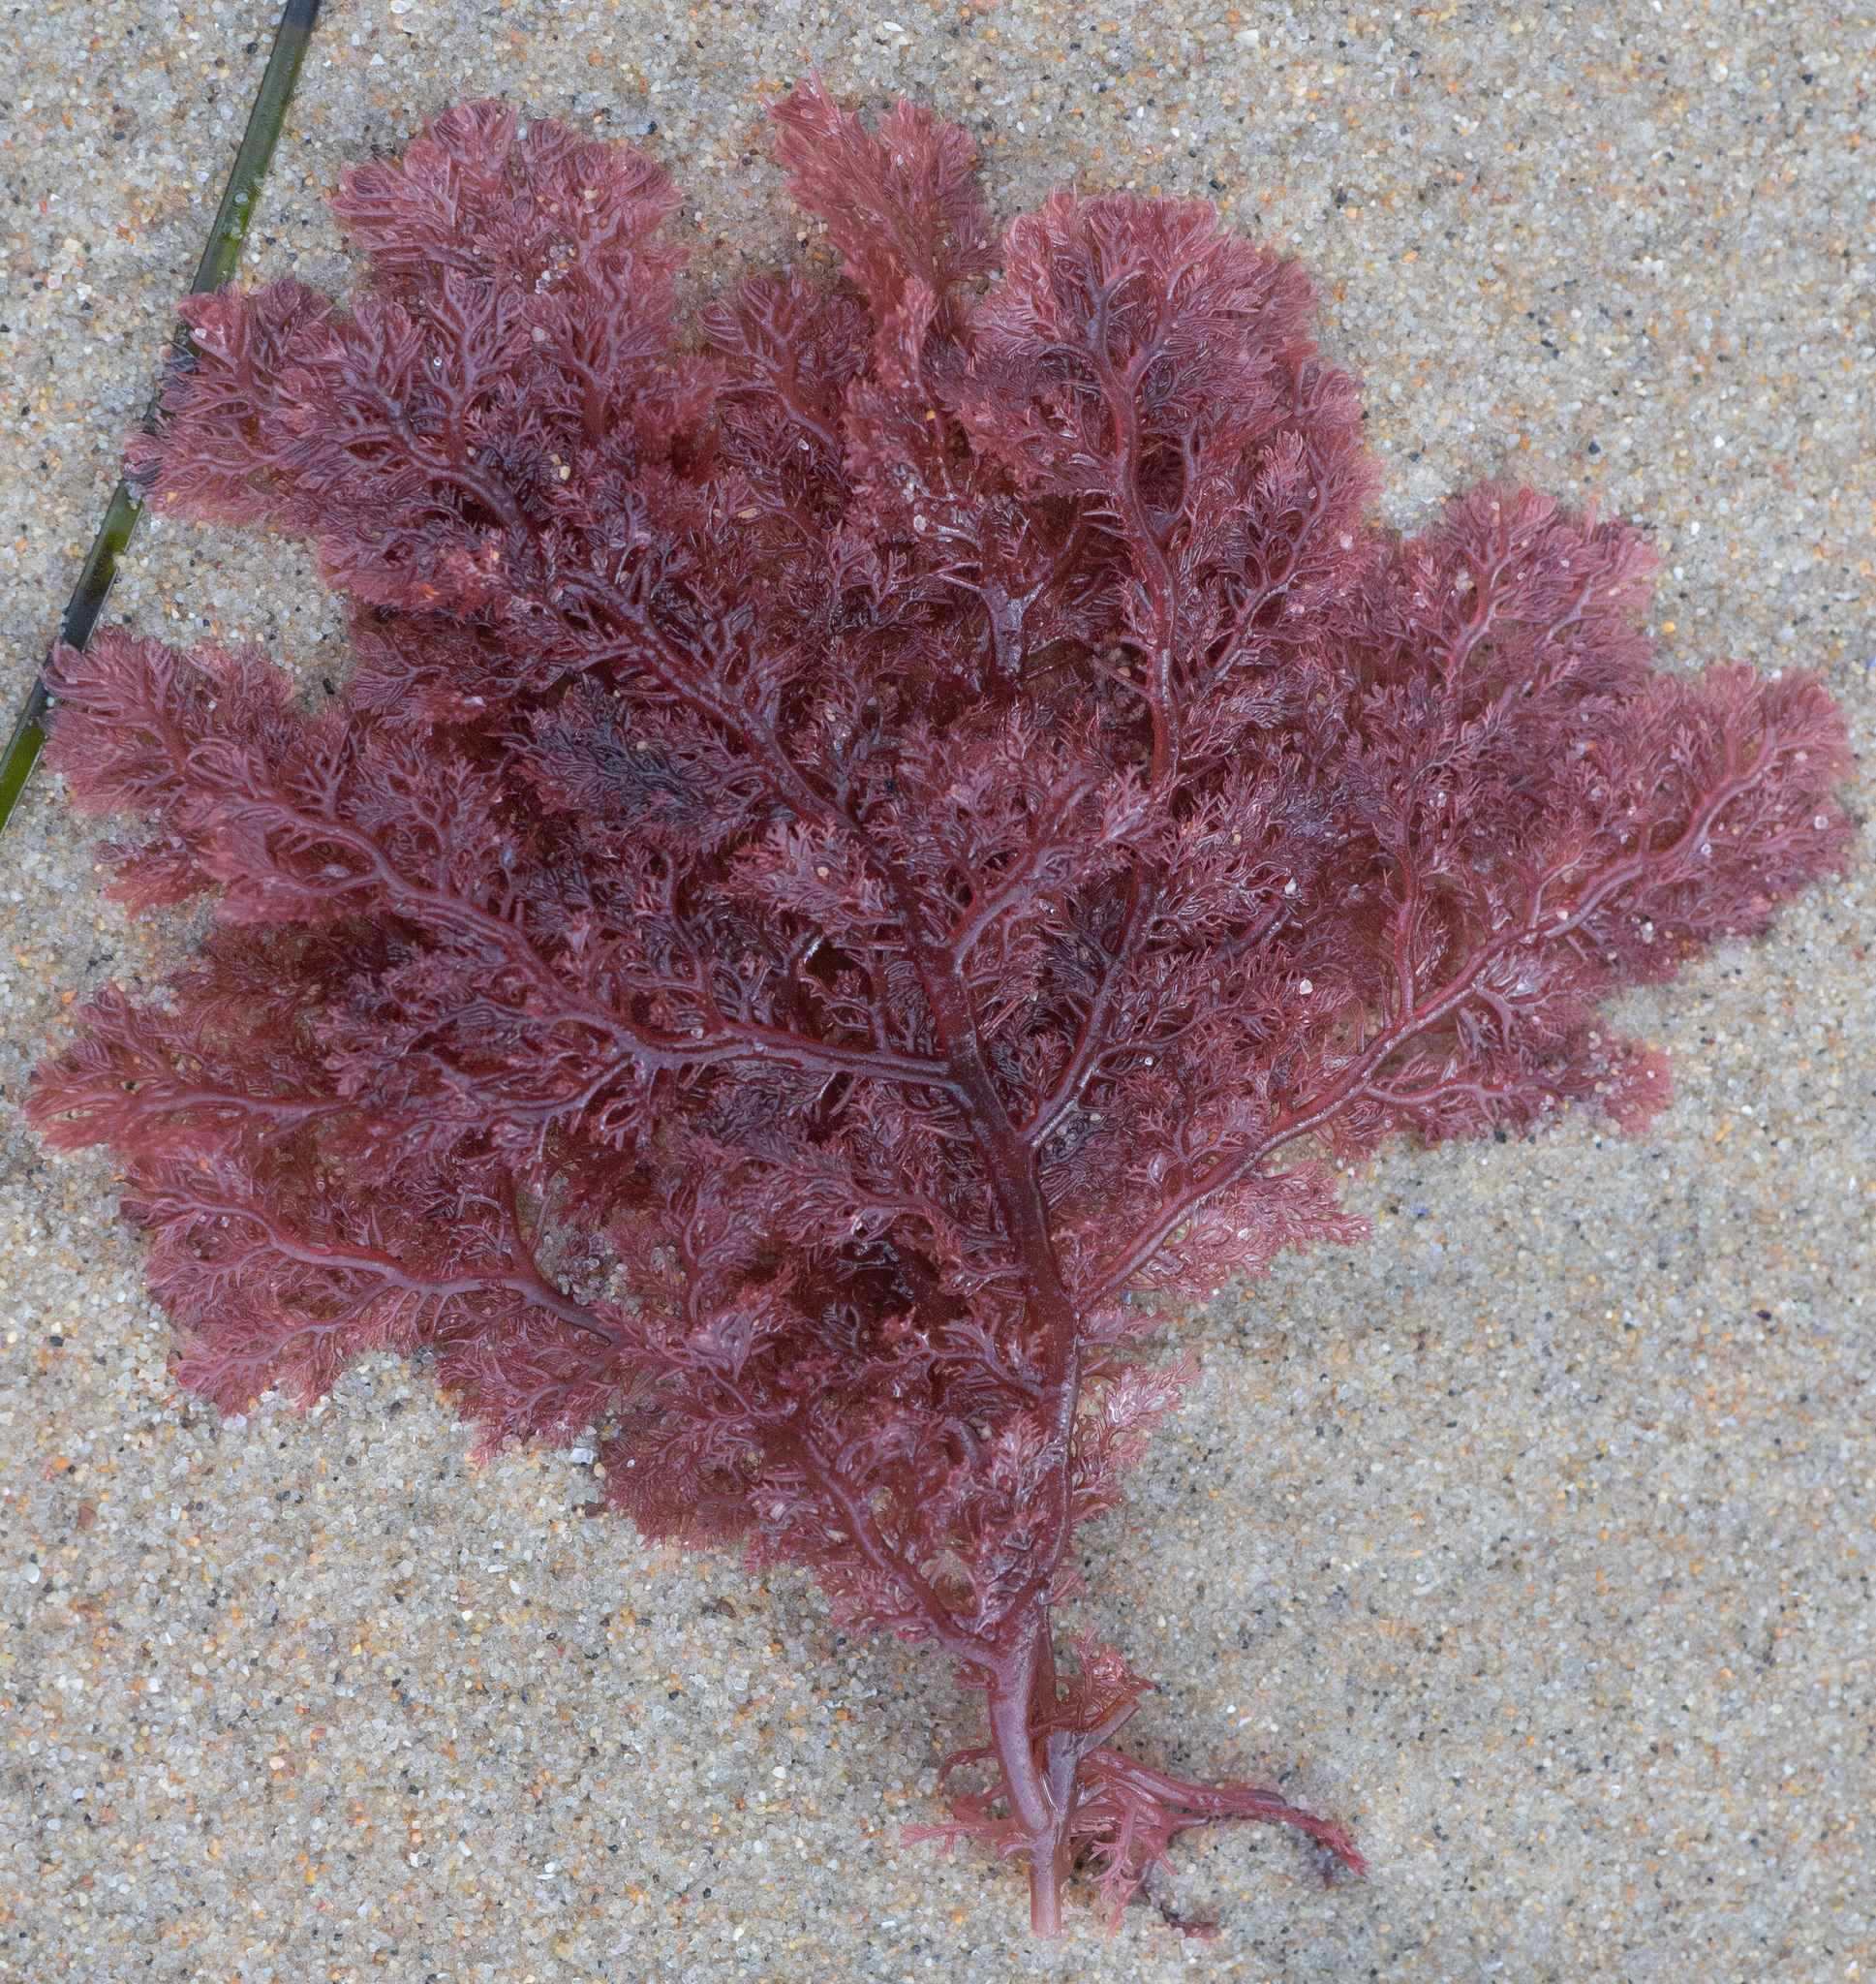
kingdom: Plantae
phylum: Rhodophyta
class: Florideophyceae
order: Plocamiales
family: Plocamiaceae
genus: Plocamium
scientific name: Plocamium cartilagineum
